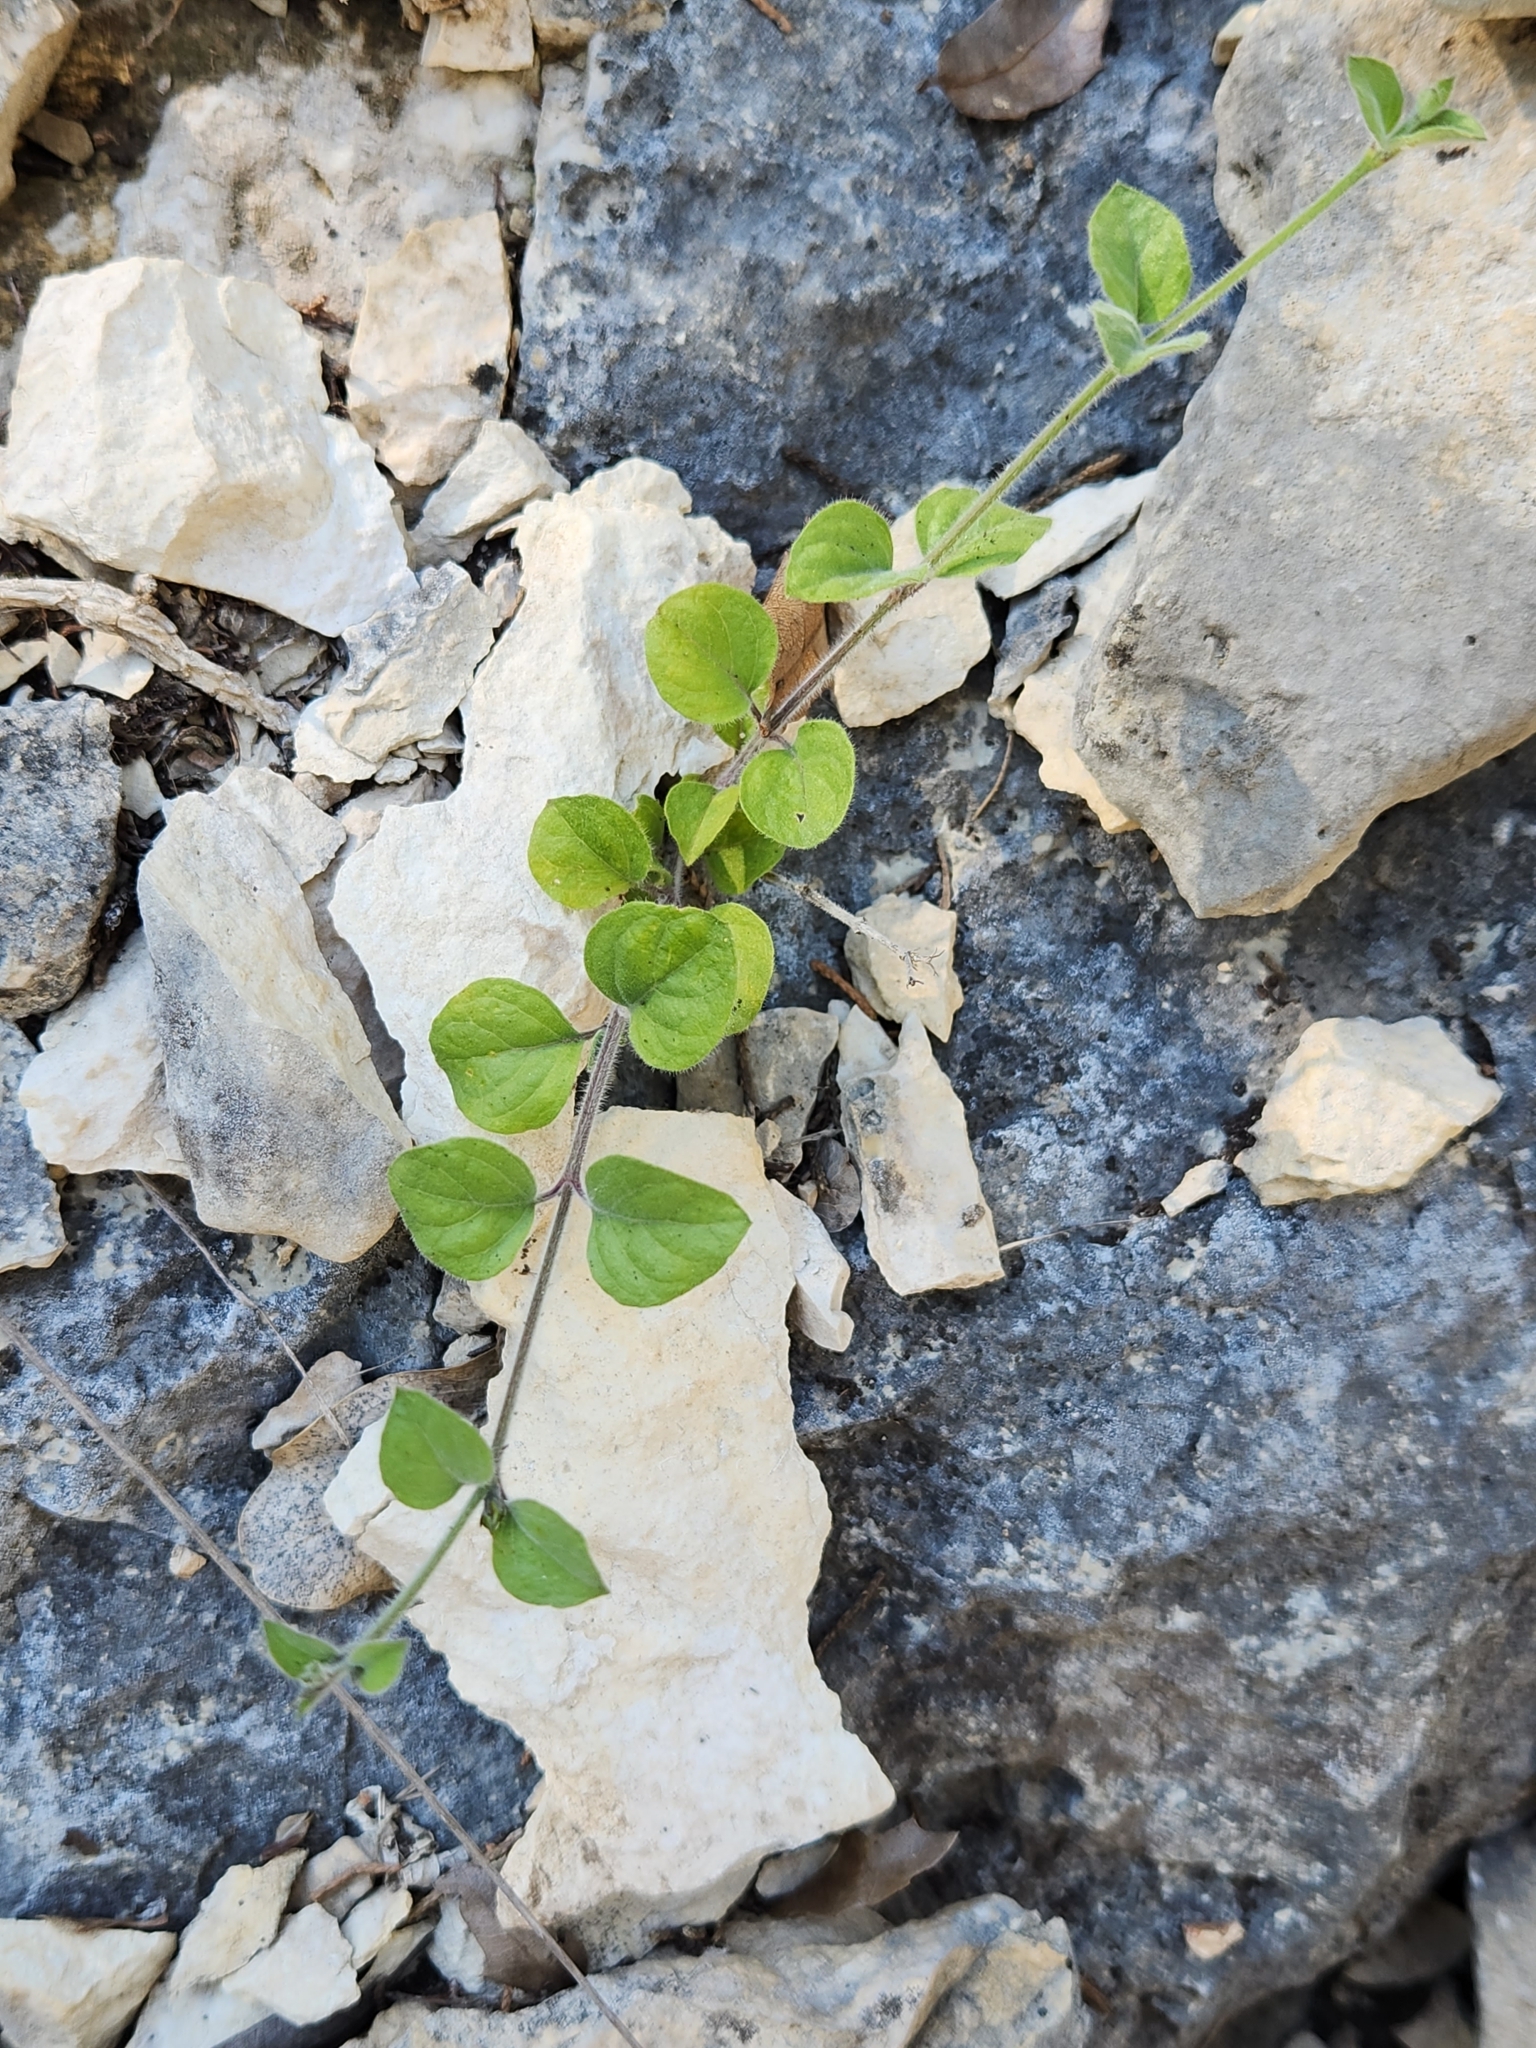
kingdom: Plantae
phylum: Tracheophyta
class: Magnoliopsida
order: Lamiales
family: Acanthaceae
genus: Carlowrightia
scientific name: Carlowrightia torreyana
